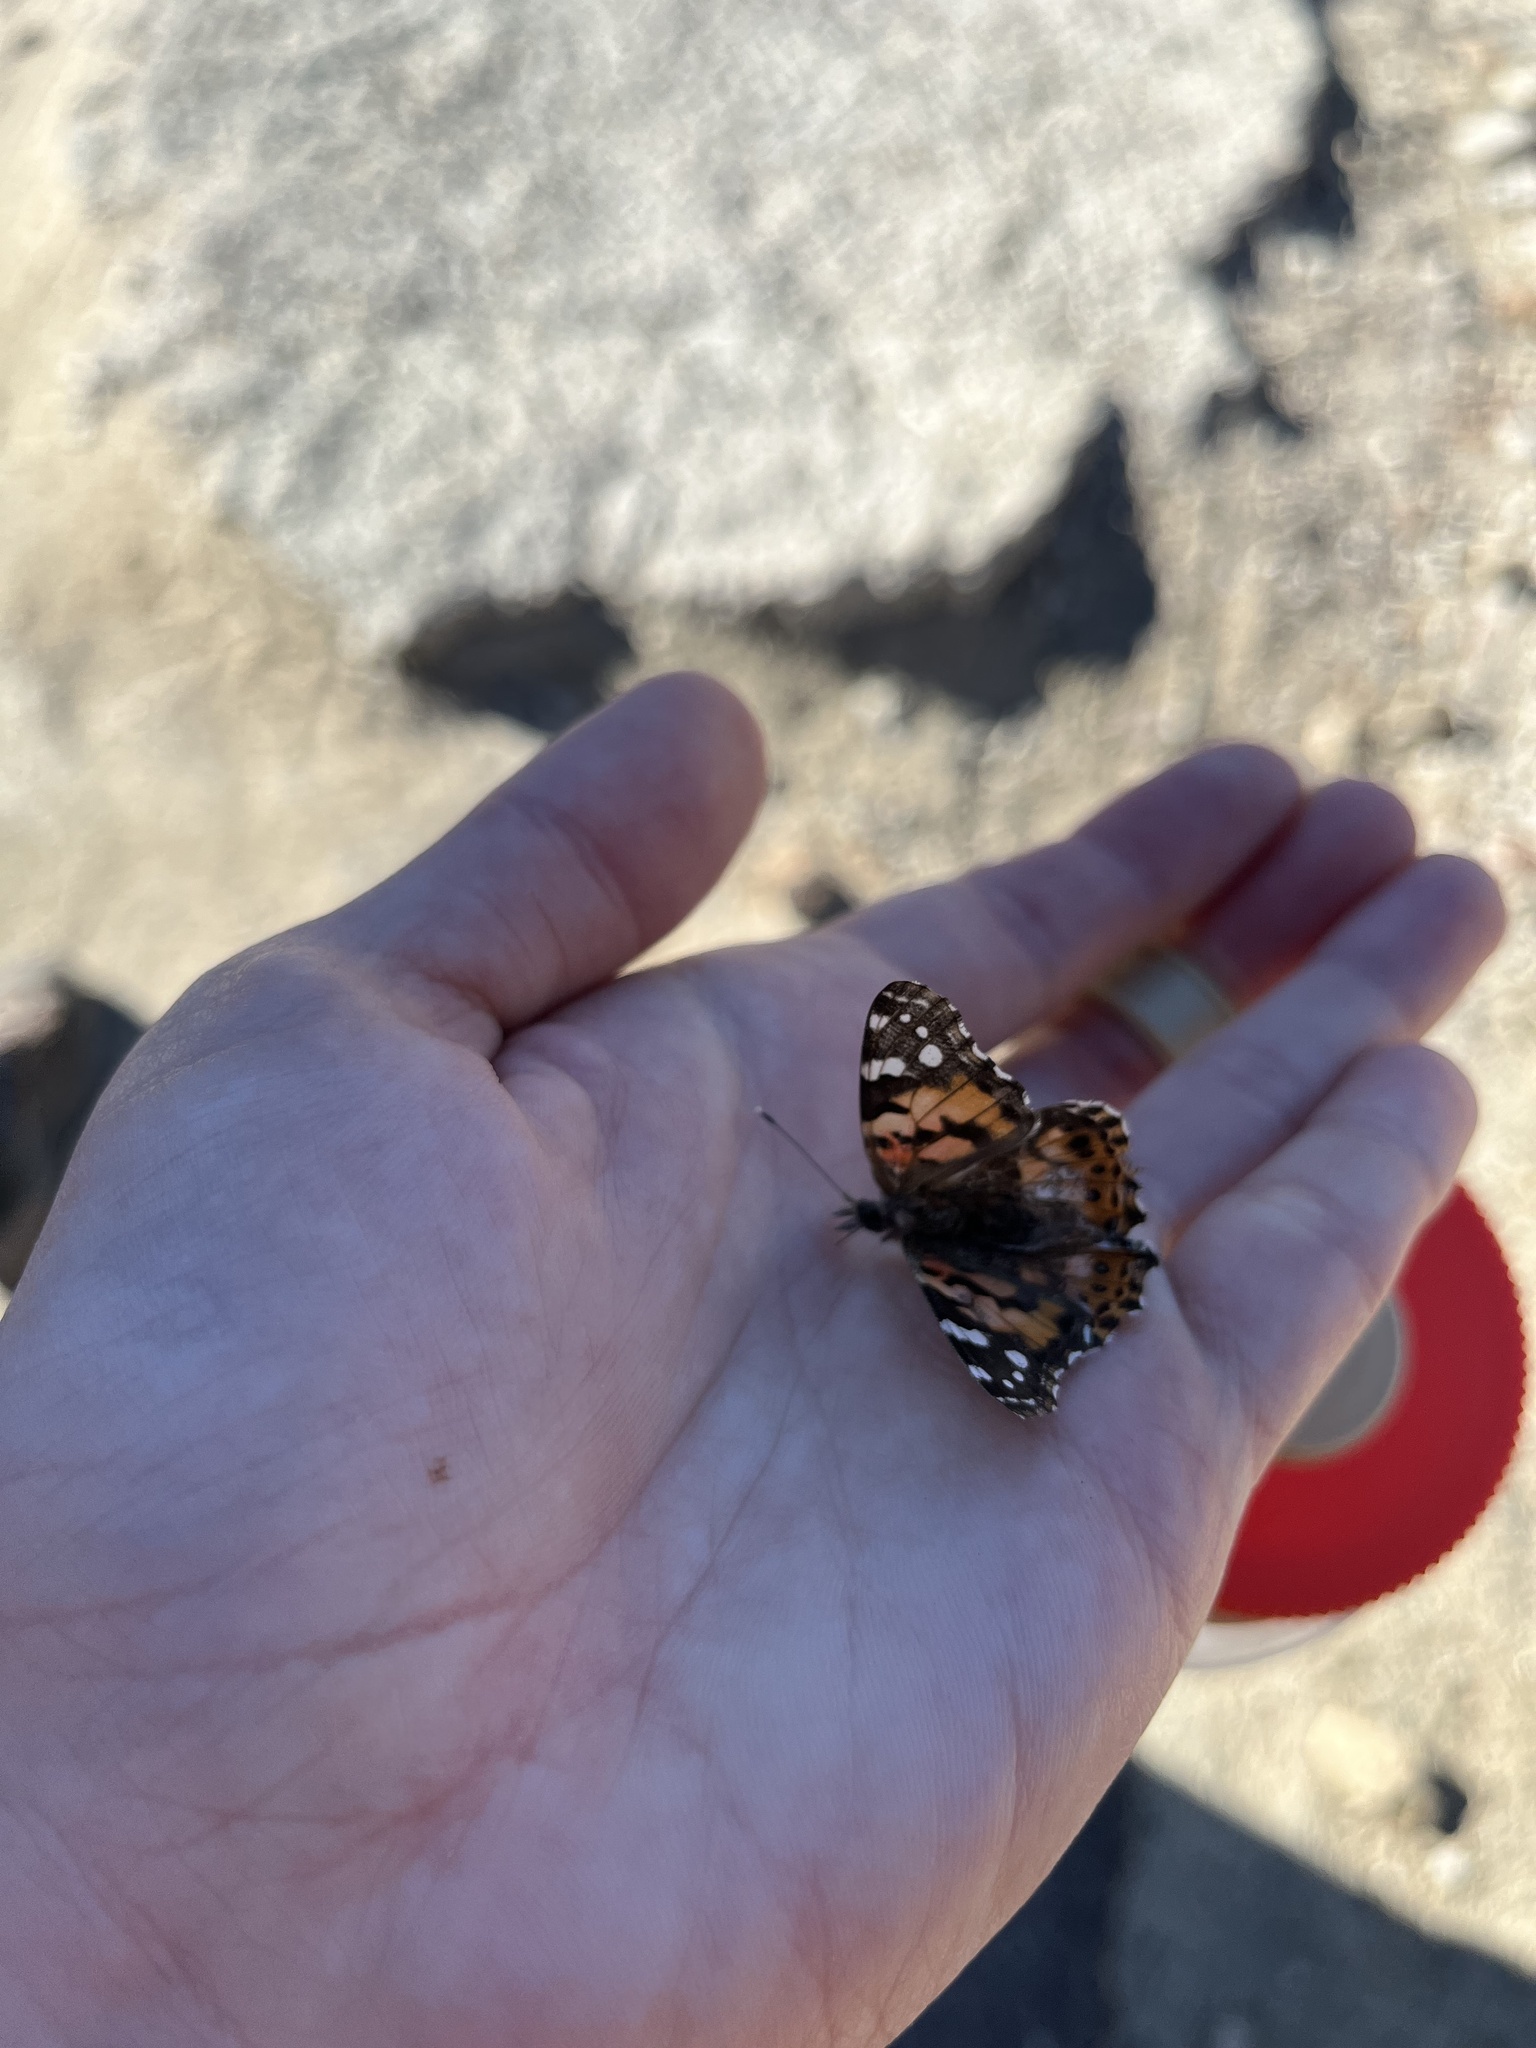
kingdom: Animalia
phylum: Arthropoda
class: Insecta
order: Lepidoptera
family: Nymphalidae
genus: Vanessa
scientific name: Vanessa cardui
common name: Painted lady
